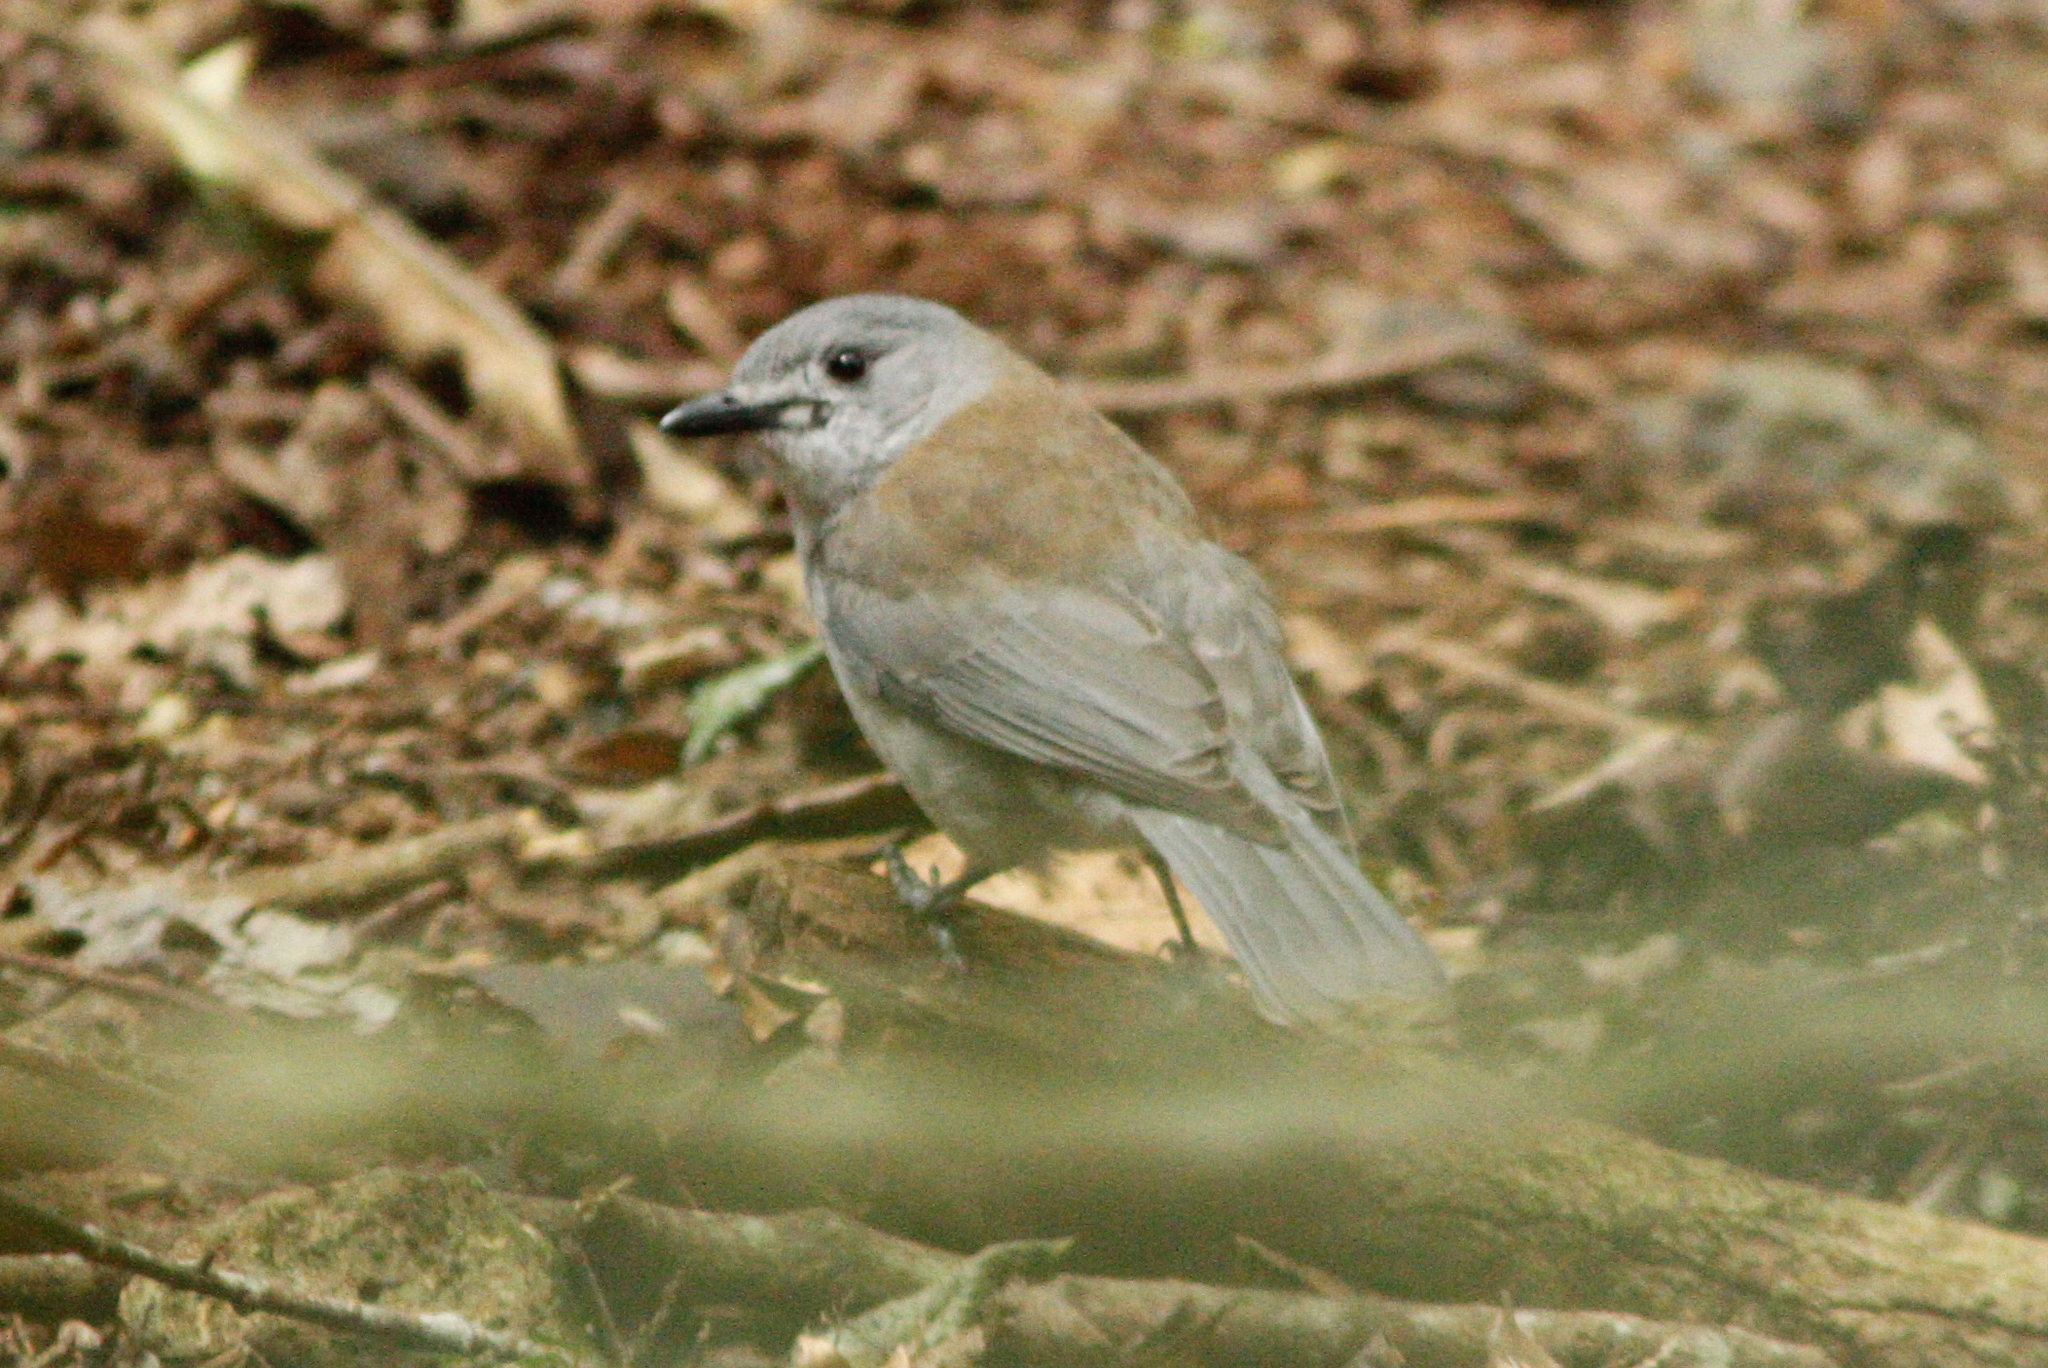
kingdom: Animalia
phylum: Chordata
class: Aves
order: Passeriformes
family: Pachycephalidae
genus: Colluricincla
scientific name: Colluricincla harmonica
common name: Grey shrikethrush
